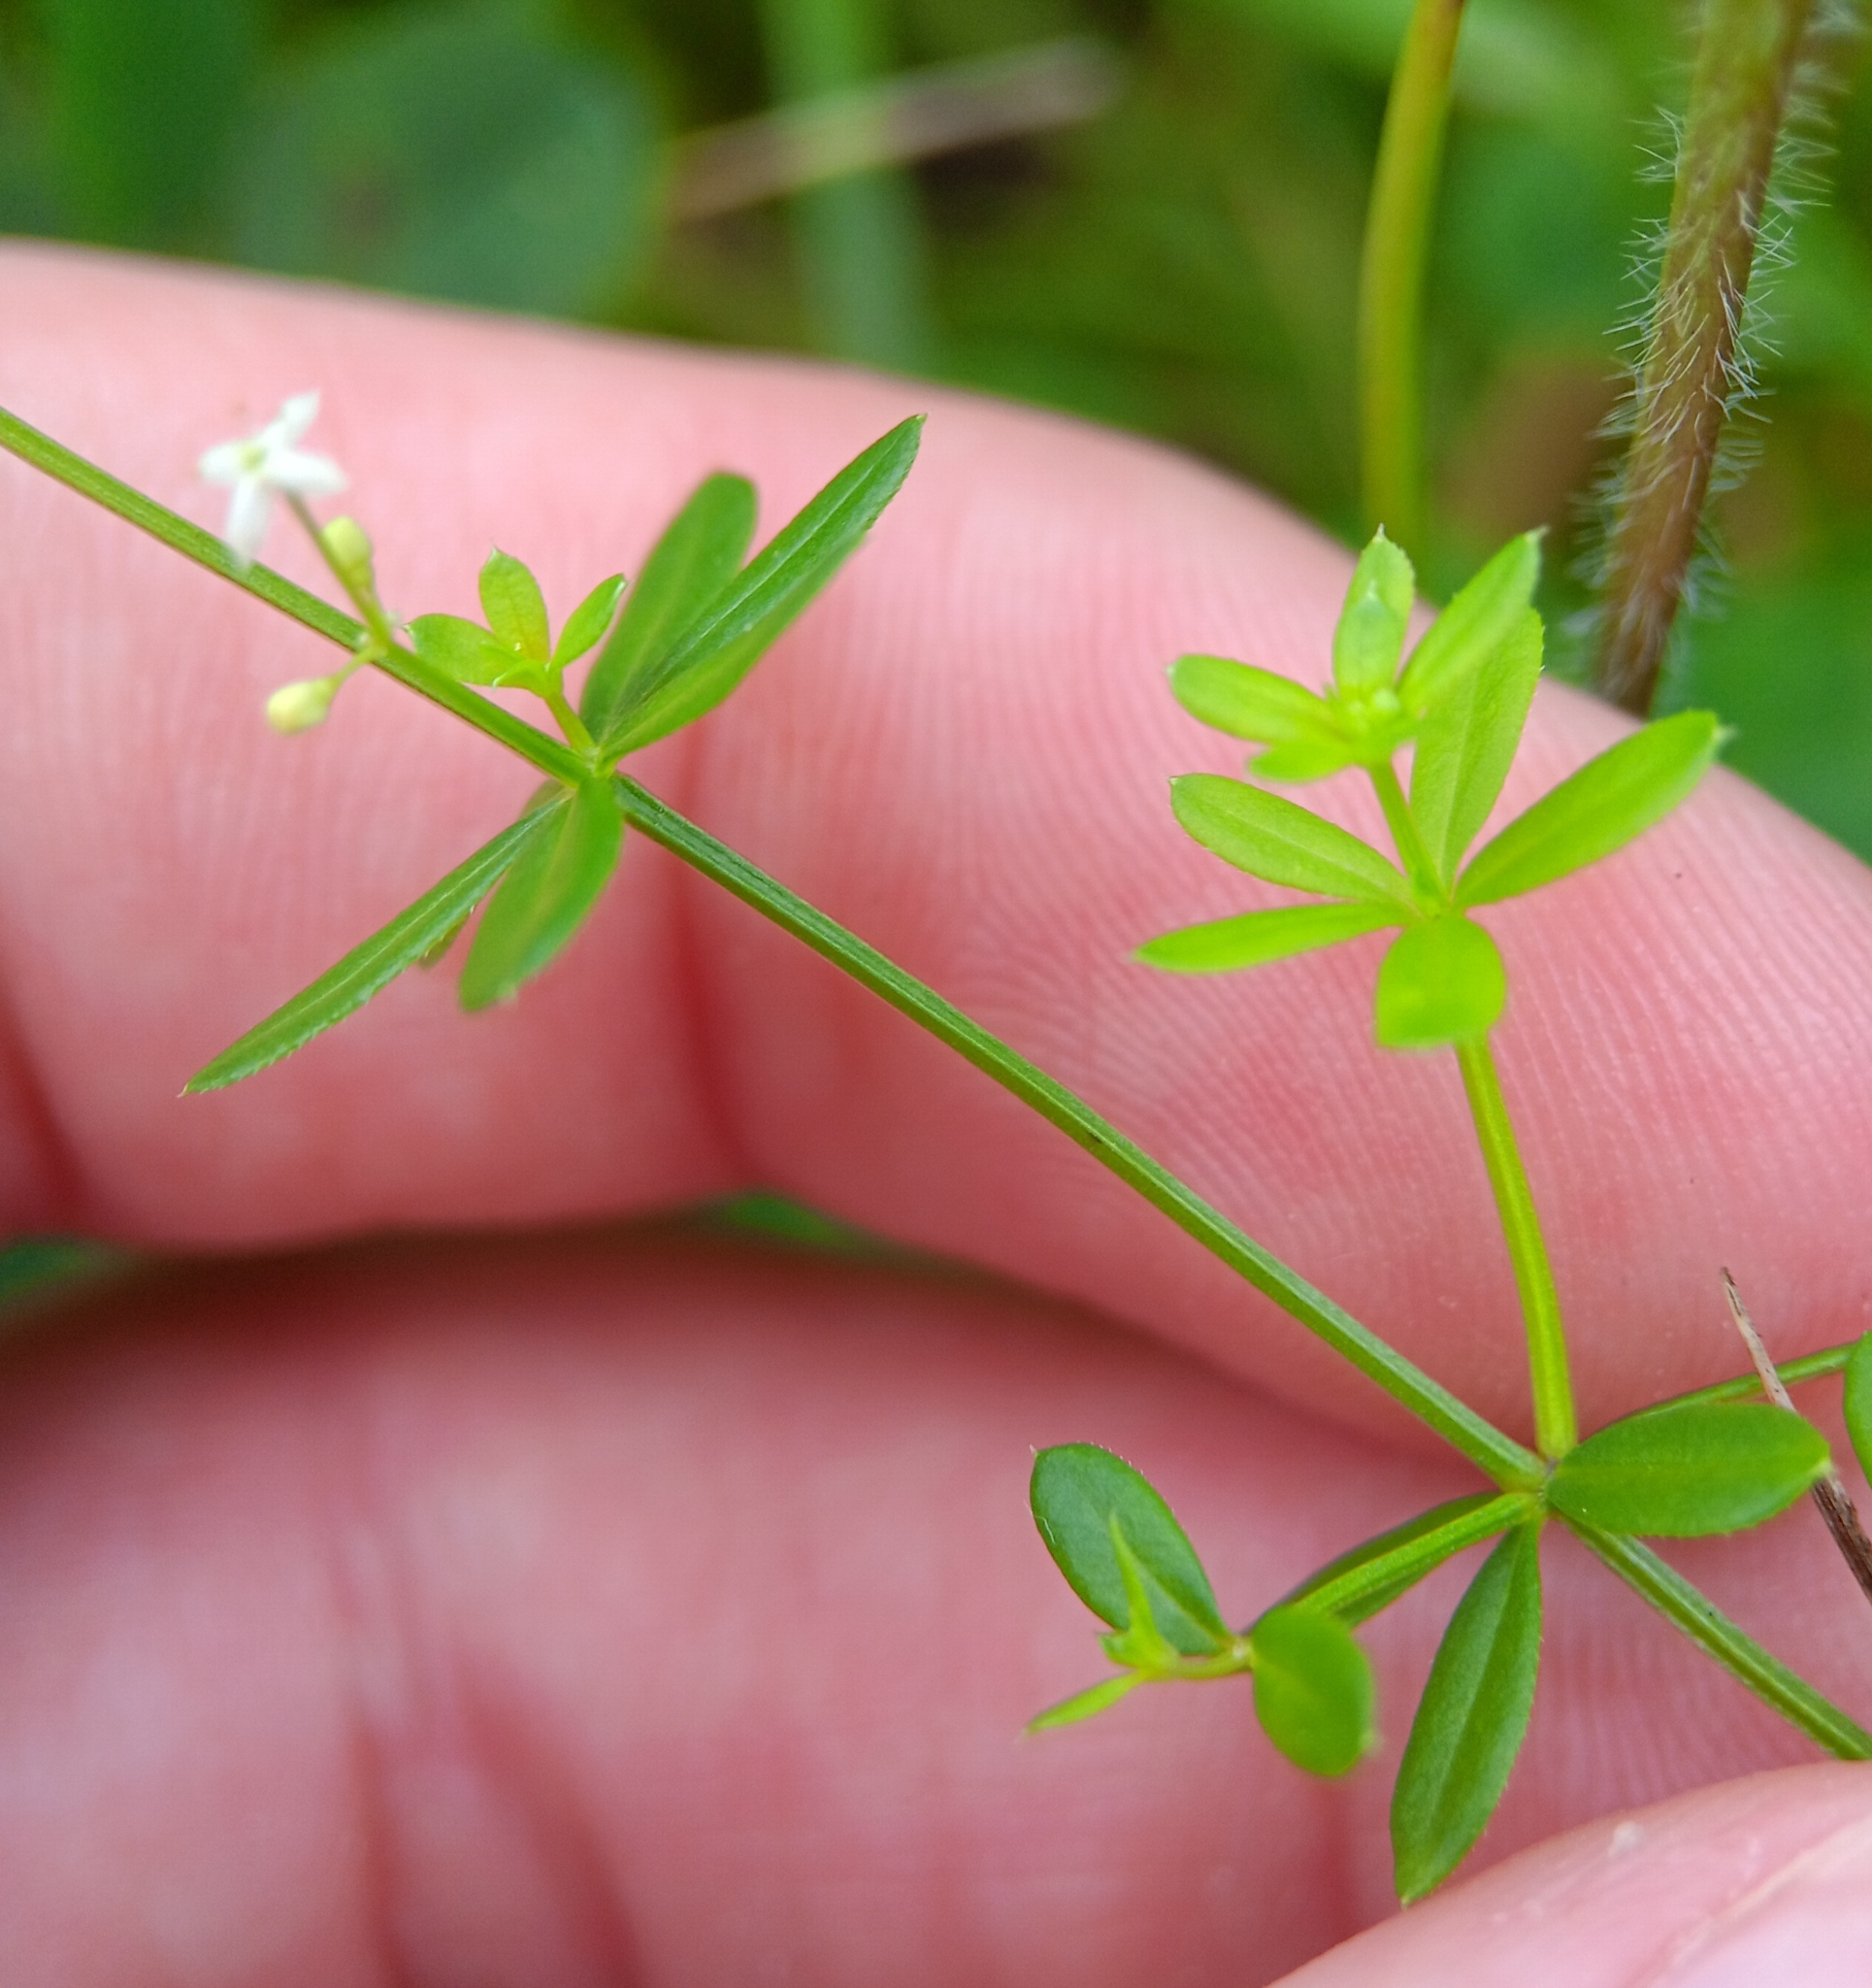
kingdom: Plantae
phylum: Tracheophyta
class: Magnoliopsida
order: Gentianales
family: Rubiaceae
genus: Galium
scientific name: Galium mollugo
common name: Hedge bedstraw
